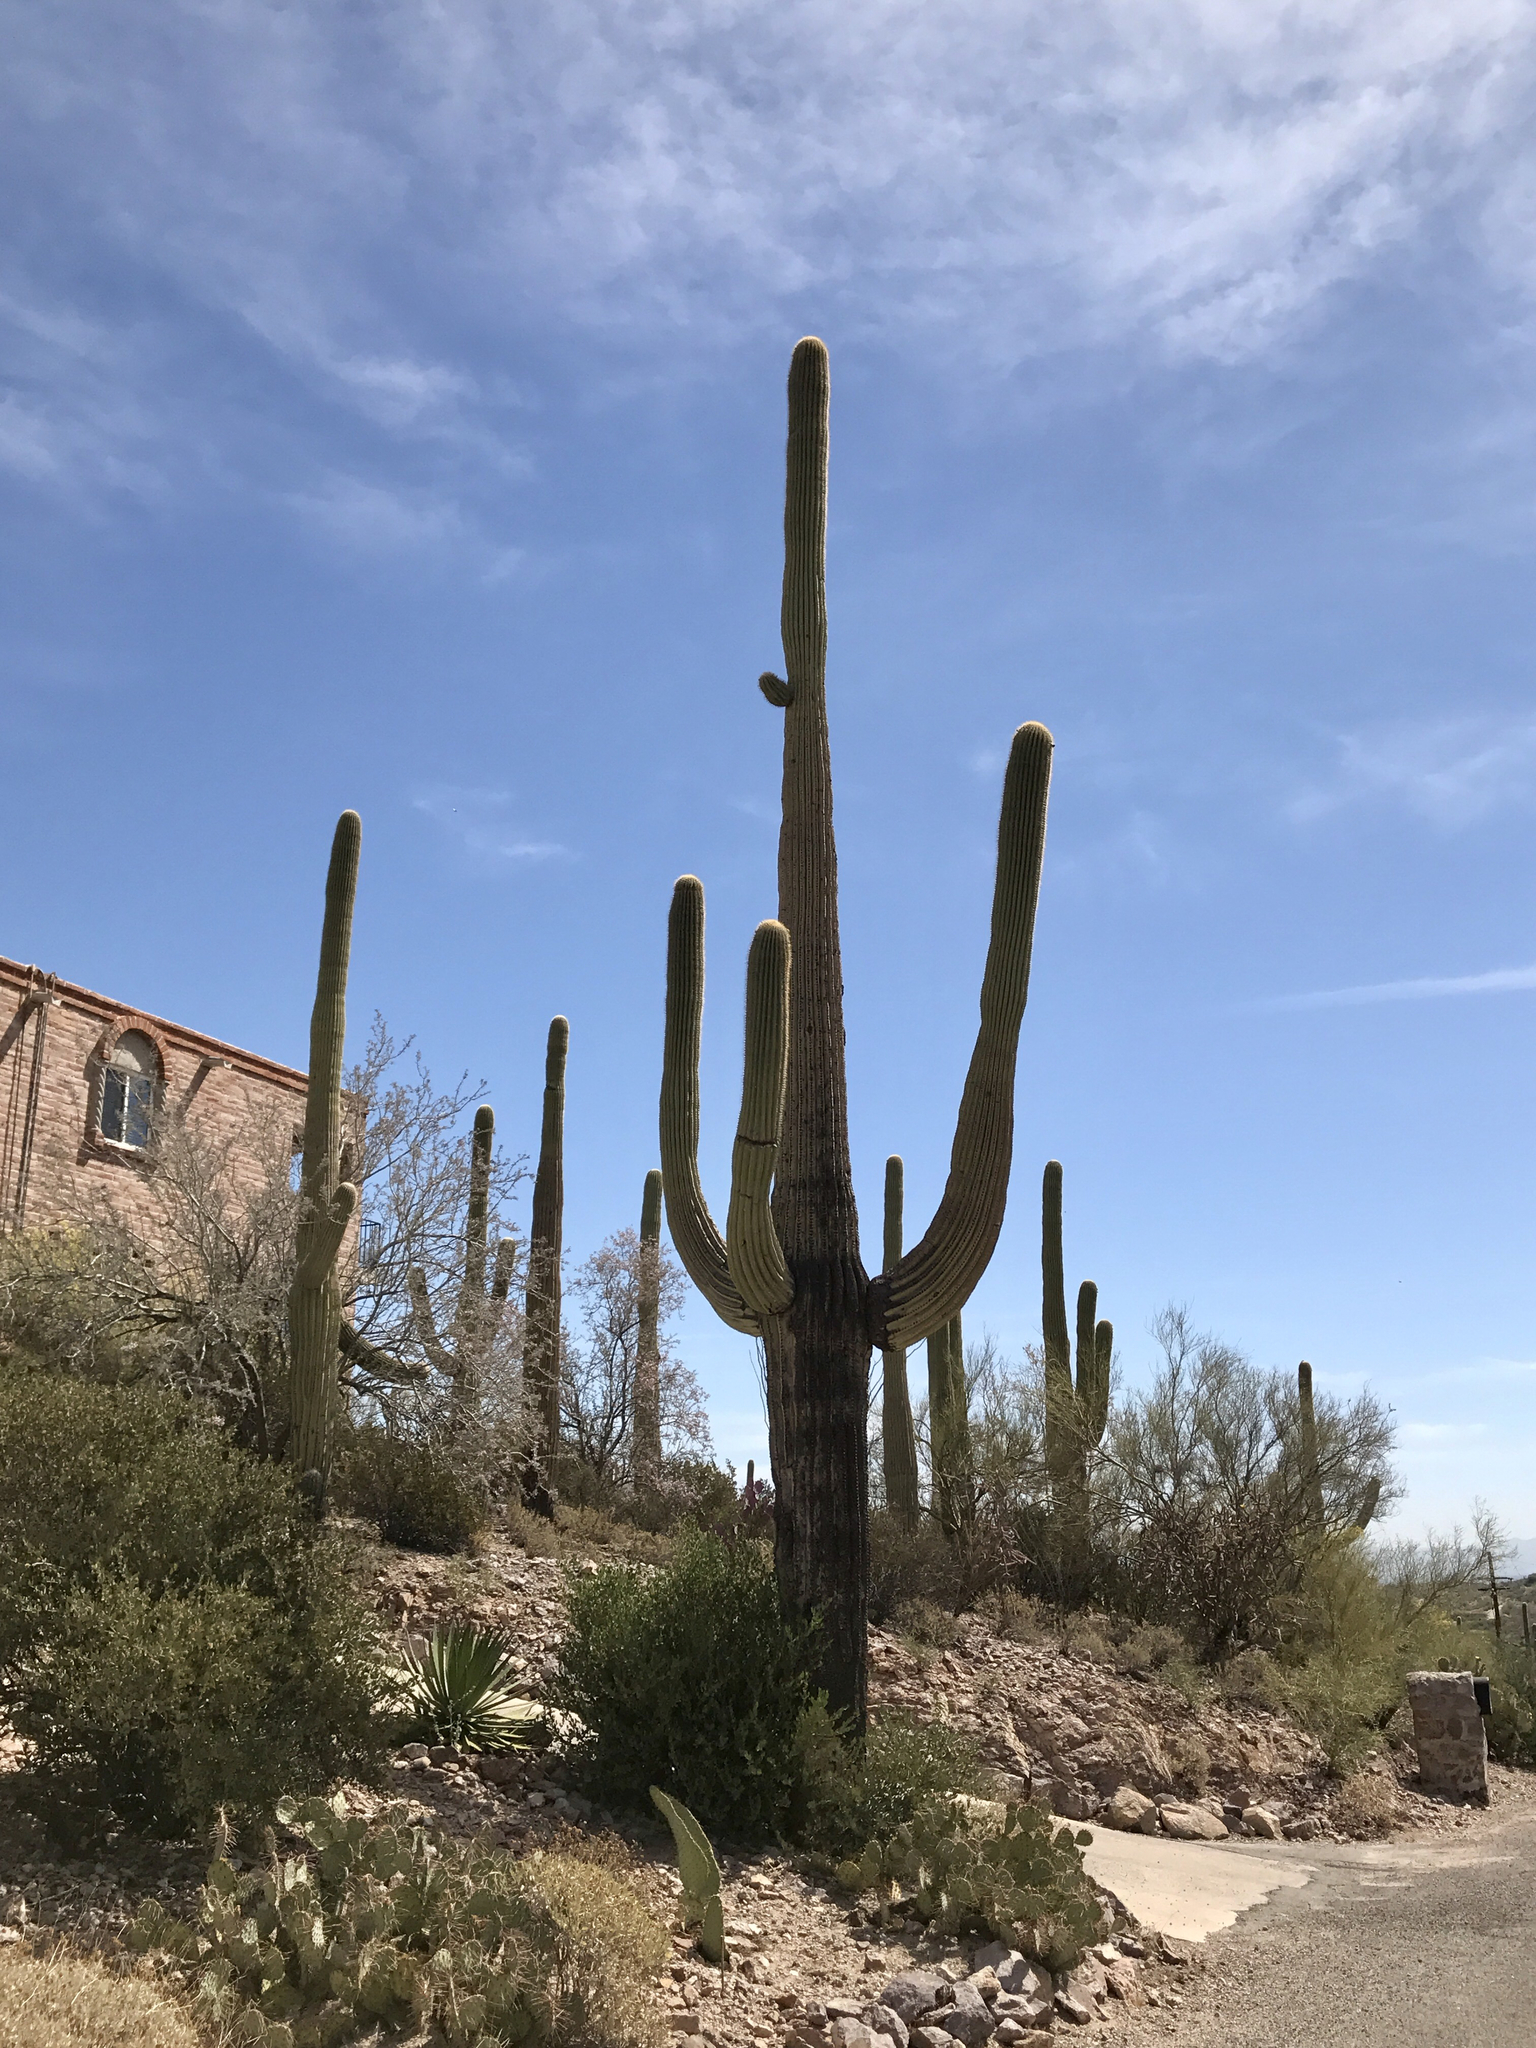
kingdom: Plantae
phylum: Tracheophyta
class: Magnoliopsida
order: Caryophyllales
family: Cactaceae
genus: Carnegiea
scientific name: Carnegiea gigantea
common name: Saguaro
